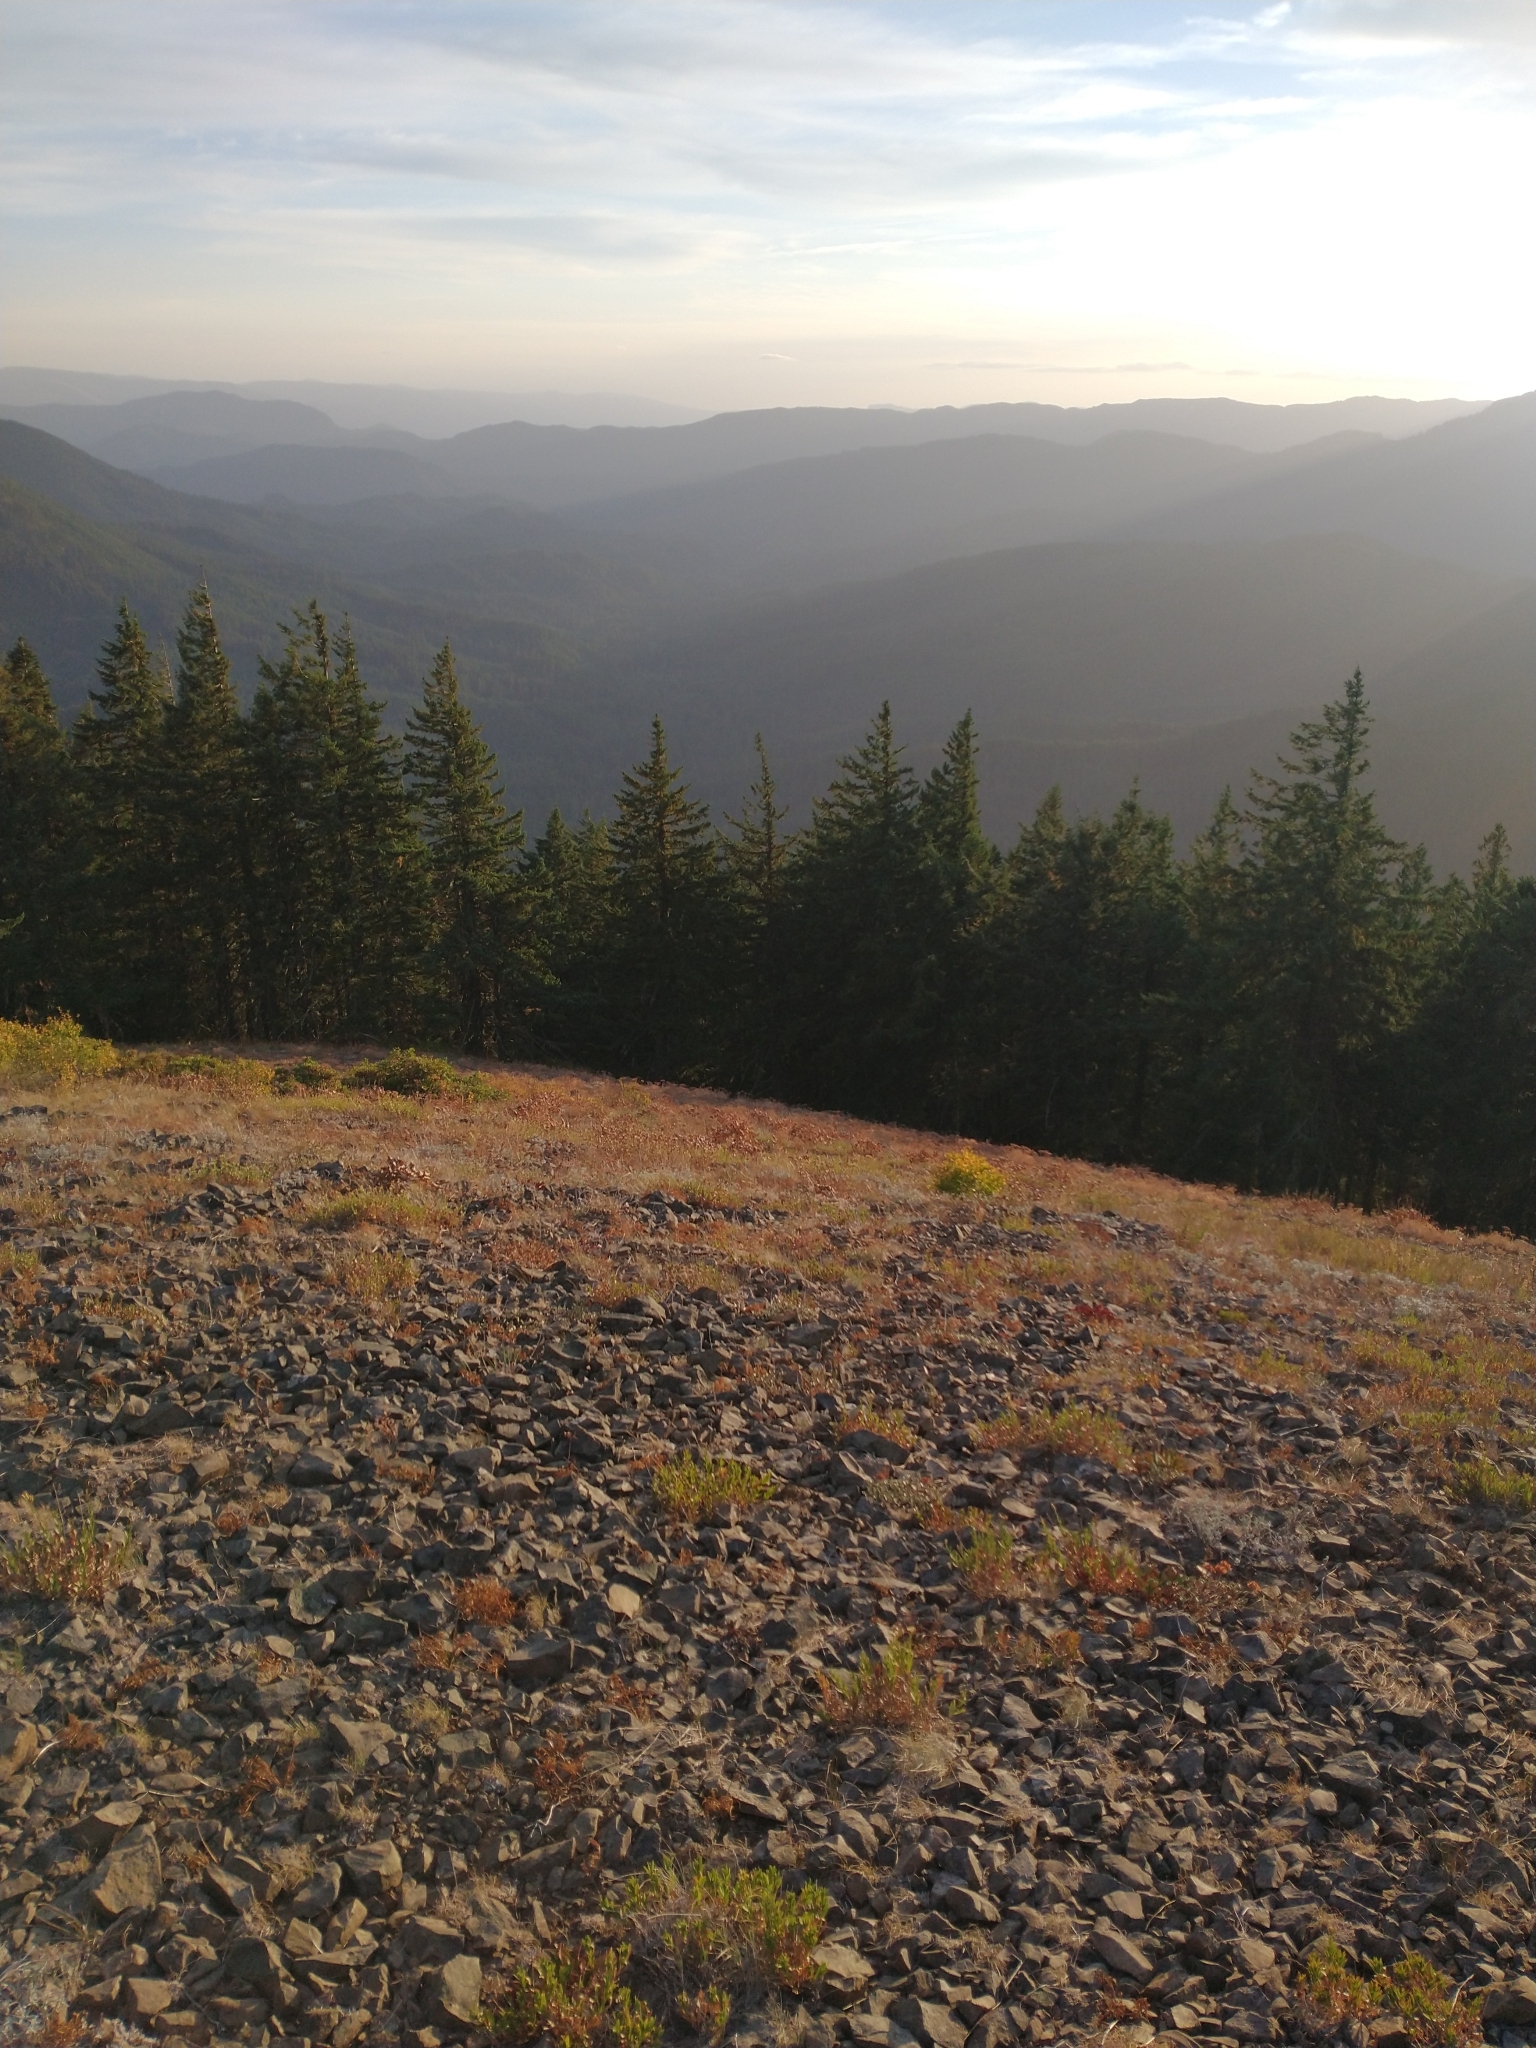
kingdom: Plantae
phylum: Tracheophyta
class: Pinopsida
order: Pinales
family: Pinaceae
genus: Pseudotsuga
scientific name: Pseudotsuga menziesii
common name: Douglas fir
